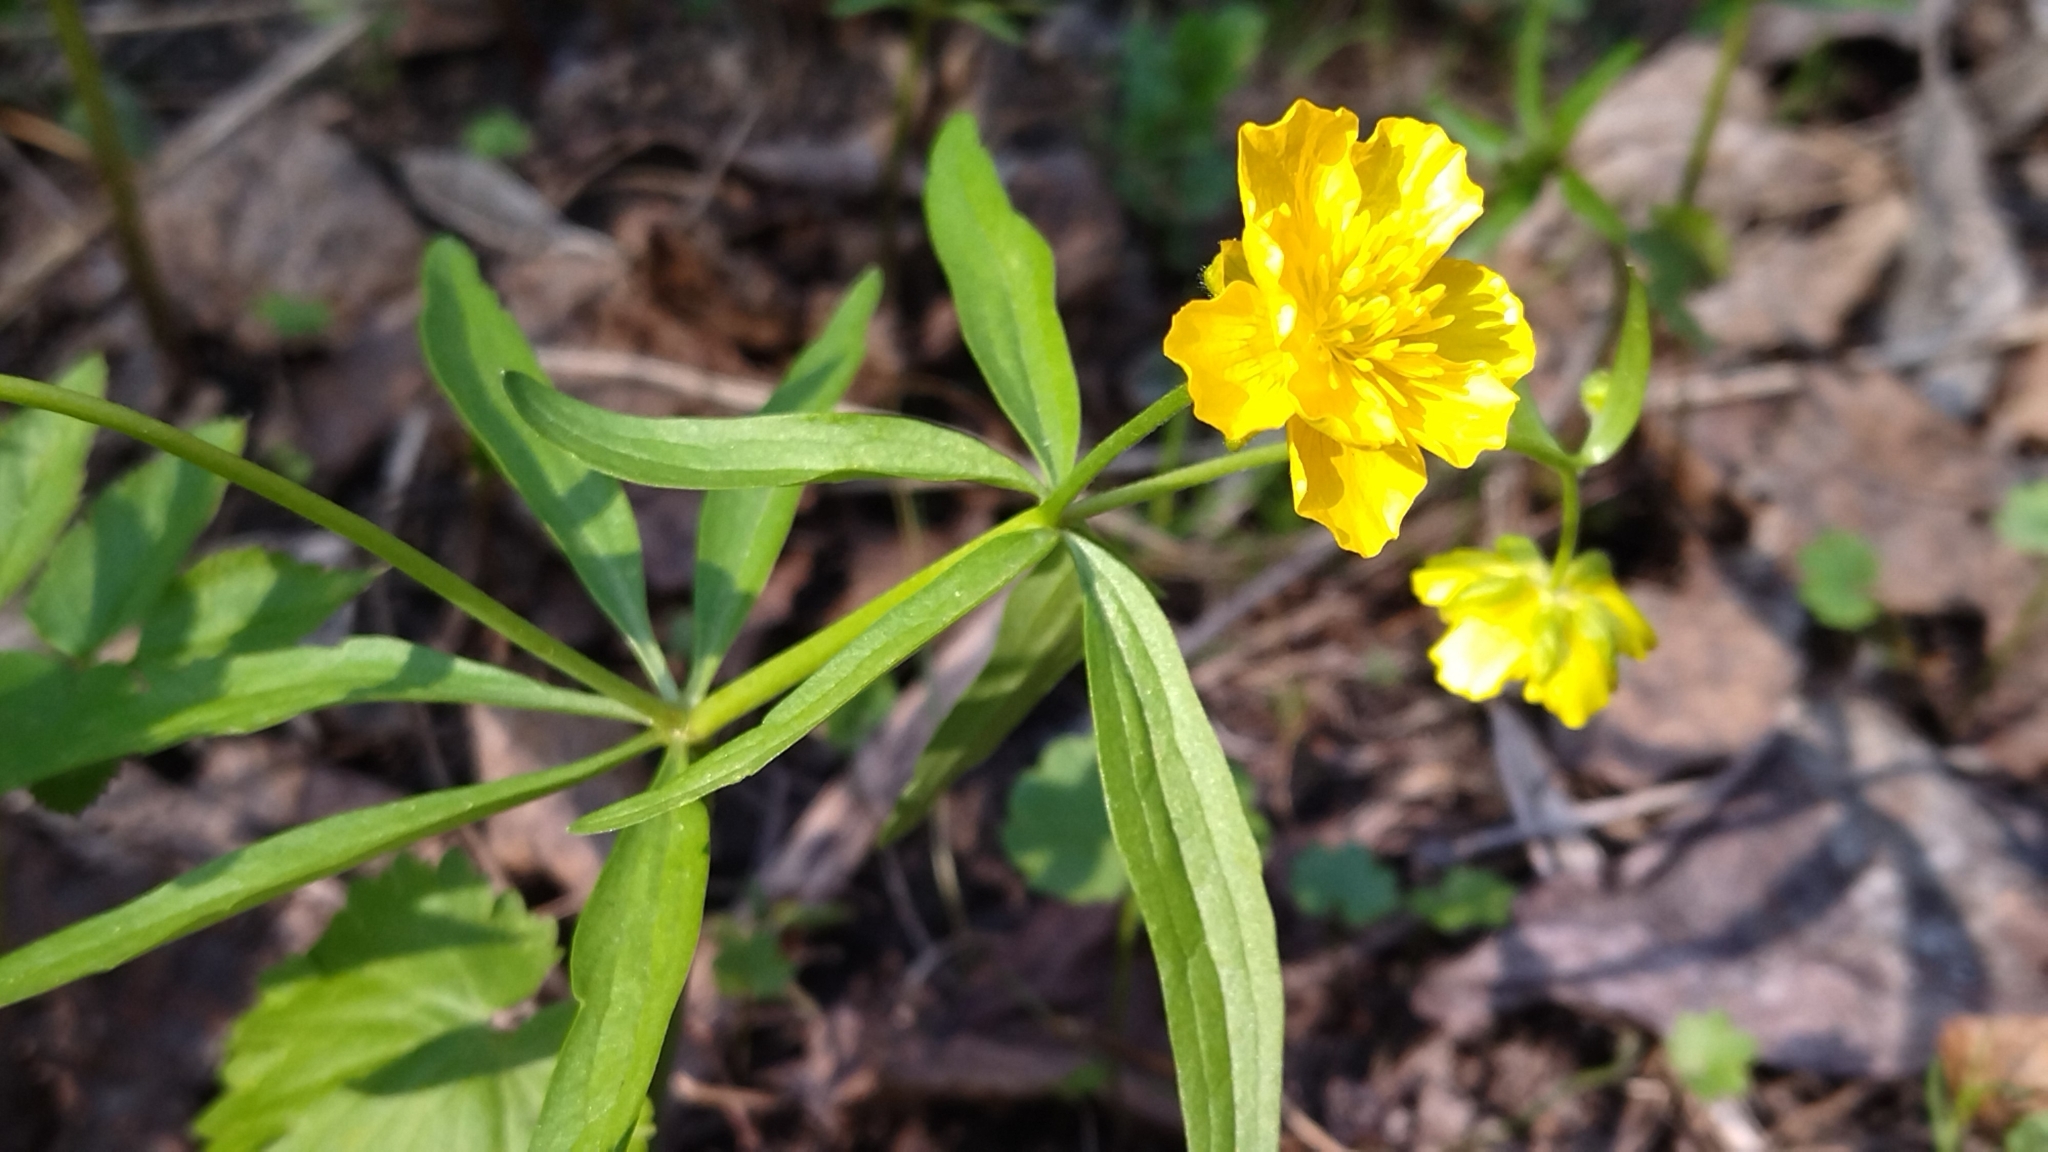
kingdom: Plantae
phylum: Tracheophyta
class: Magnoliopsida
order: Ranunculales
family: Ranunculaceae
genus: Ranunculus
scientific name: Ranunculus monophyllus
